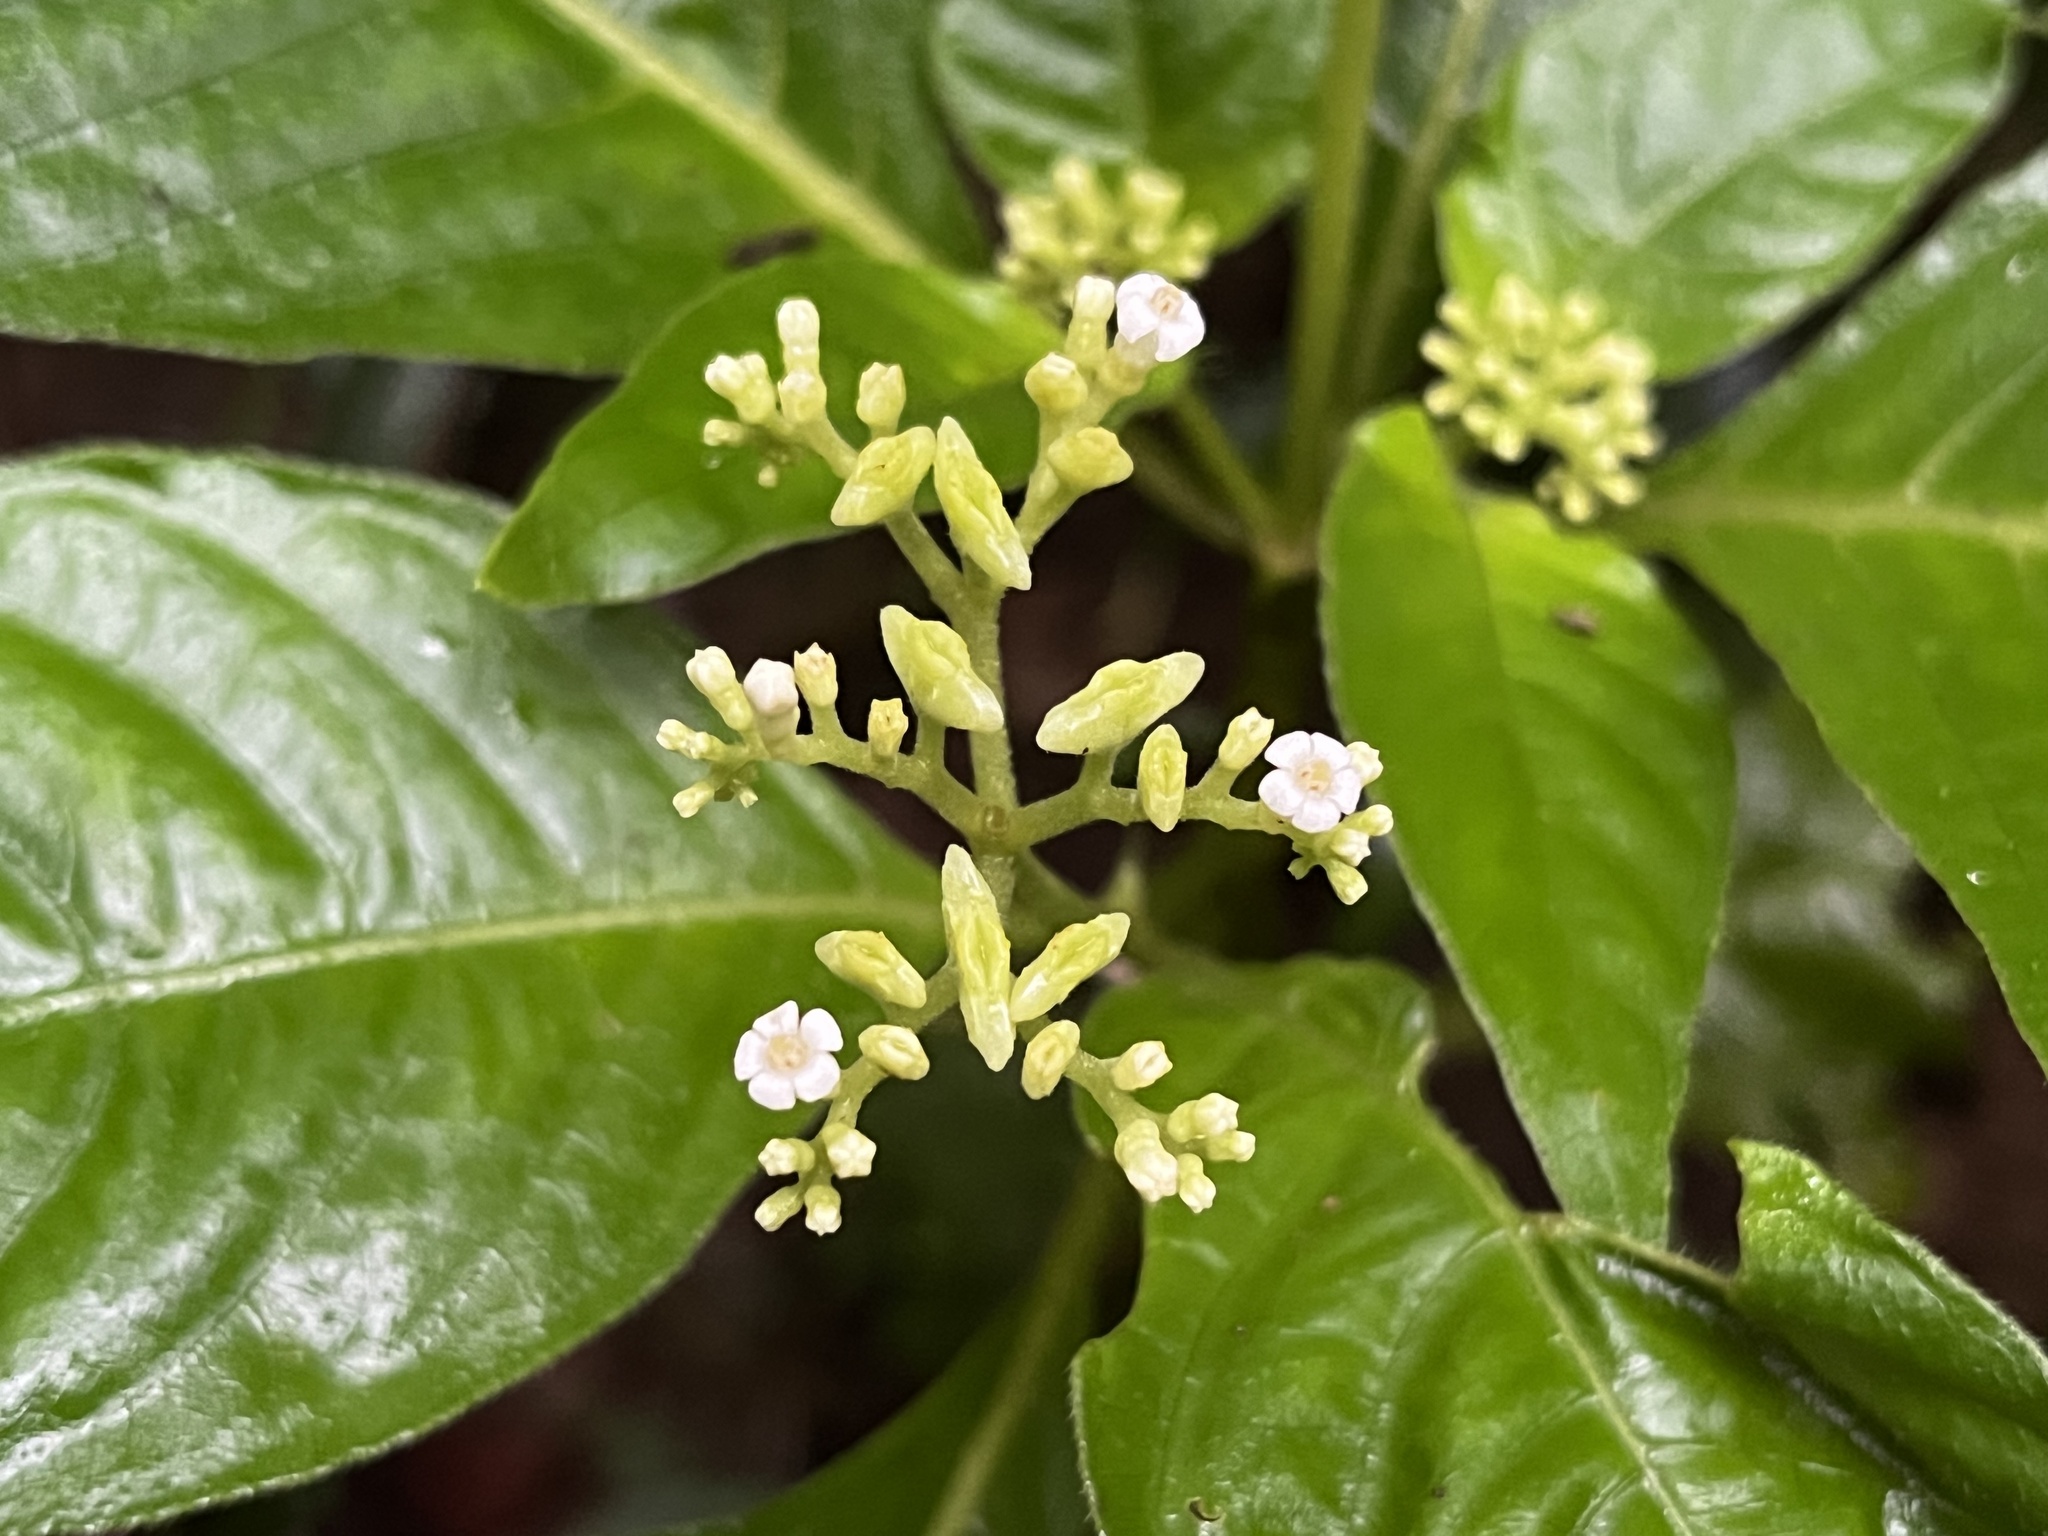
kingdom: Plantae
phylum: Tracheophyta
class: Magnoliopsida
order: Gentianales
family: Rubiaceae
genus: Ophiorrhiza
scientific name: Ophiorrhiza kuroiwae
